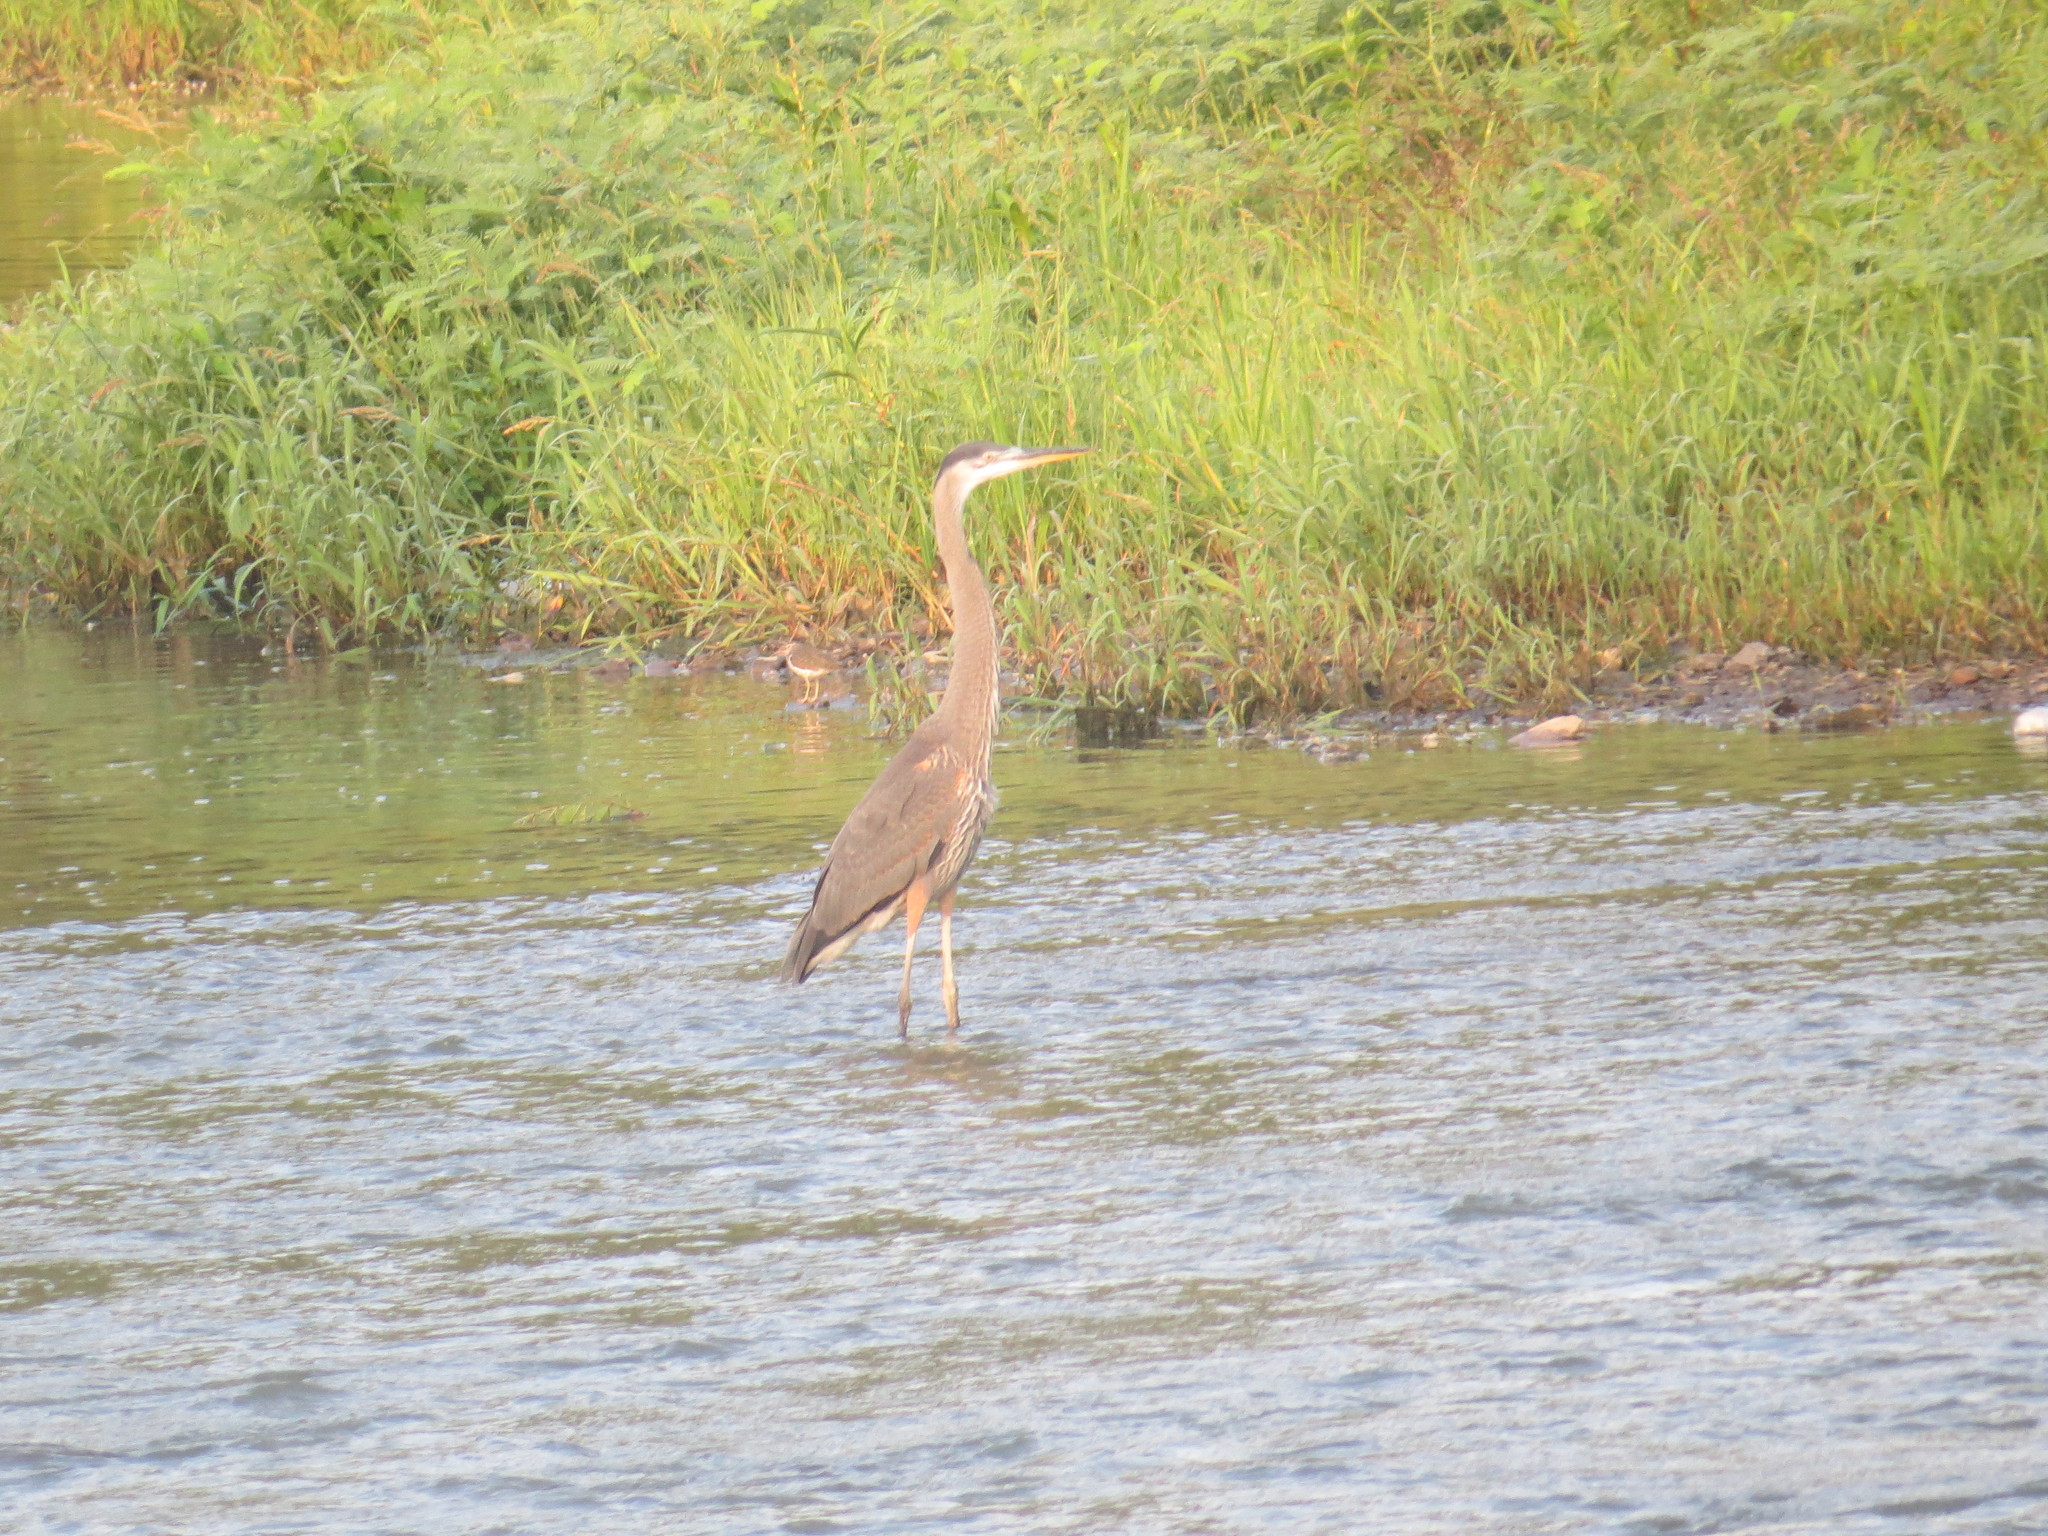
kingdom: Animalia
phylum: Chordata
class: Aves
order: Pelecaniformes
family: Ardeidae
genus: Ardea
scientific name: Ardea herodias
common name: Great blue heron
